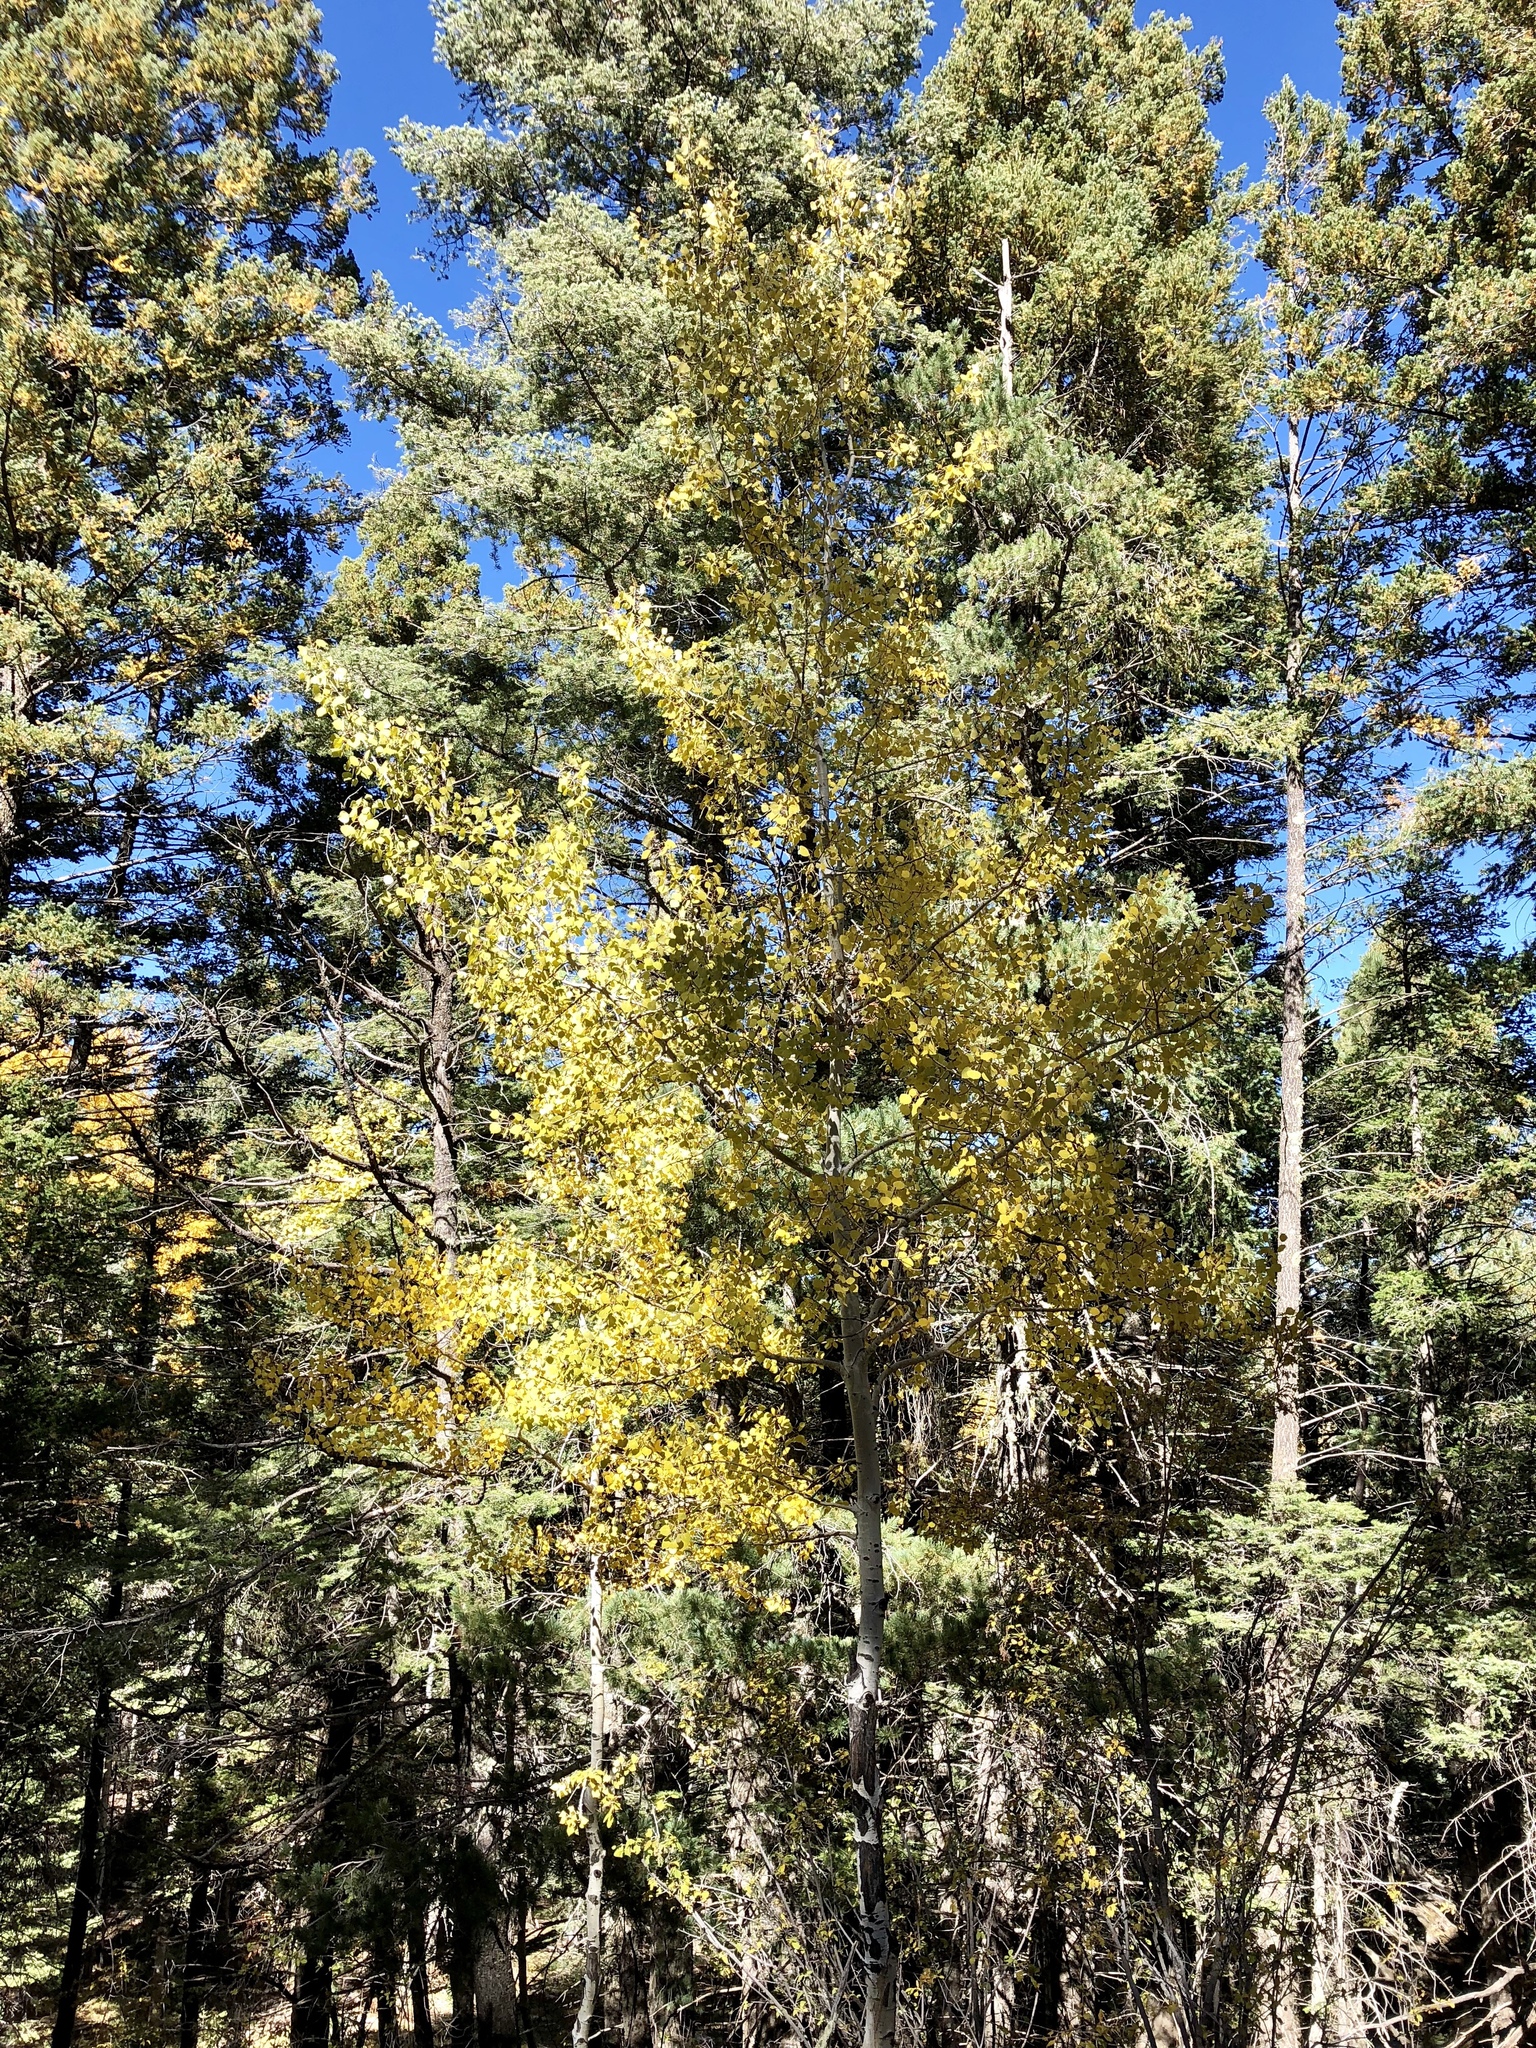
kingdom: Plantae
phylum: Tracheophyta
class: Magnoliopsida
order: Malpighiales
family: Salicaceae
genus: Populus
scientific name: Populus tremuloides
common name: Quaking aspen
